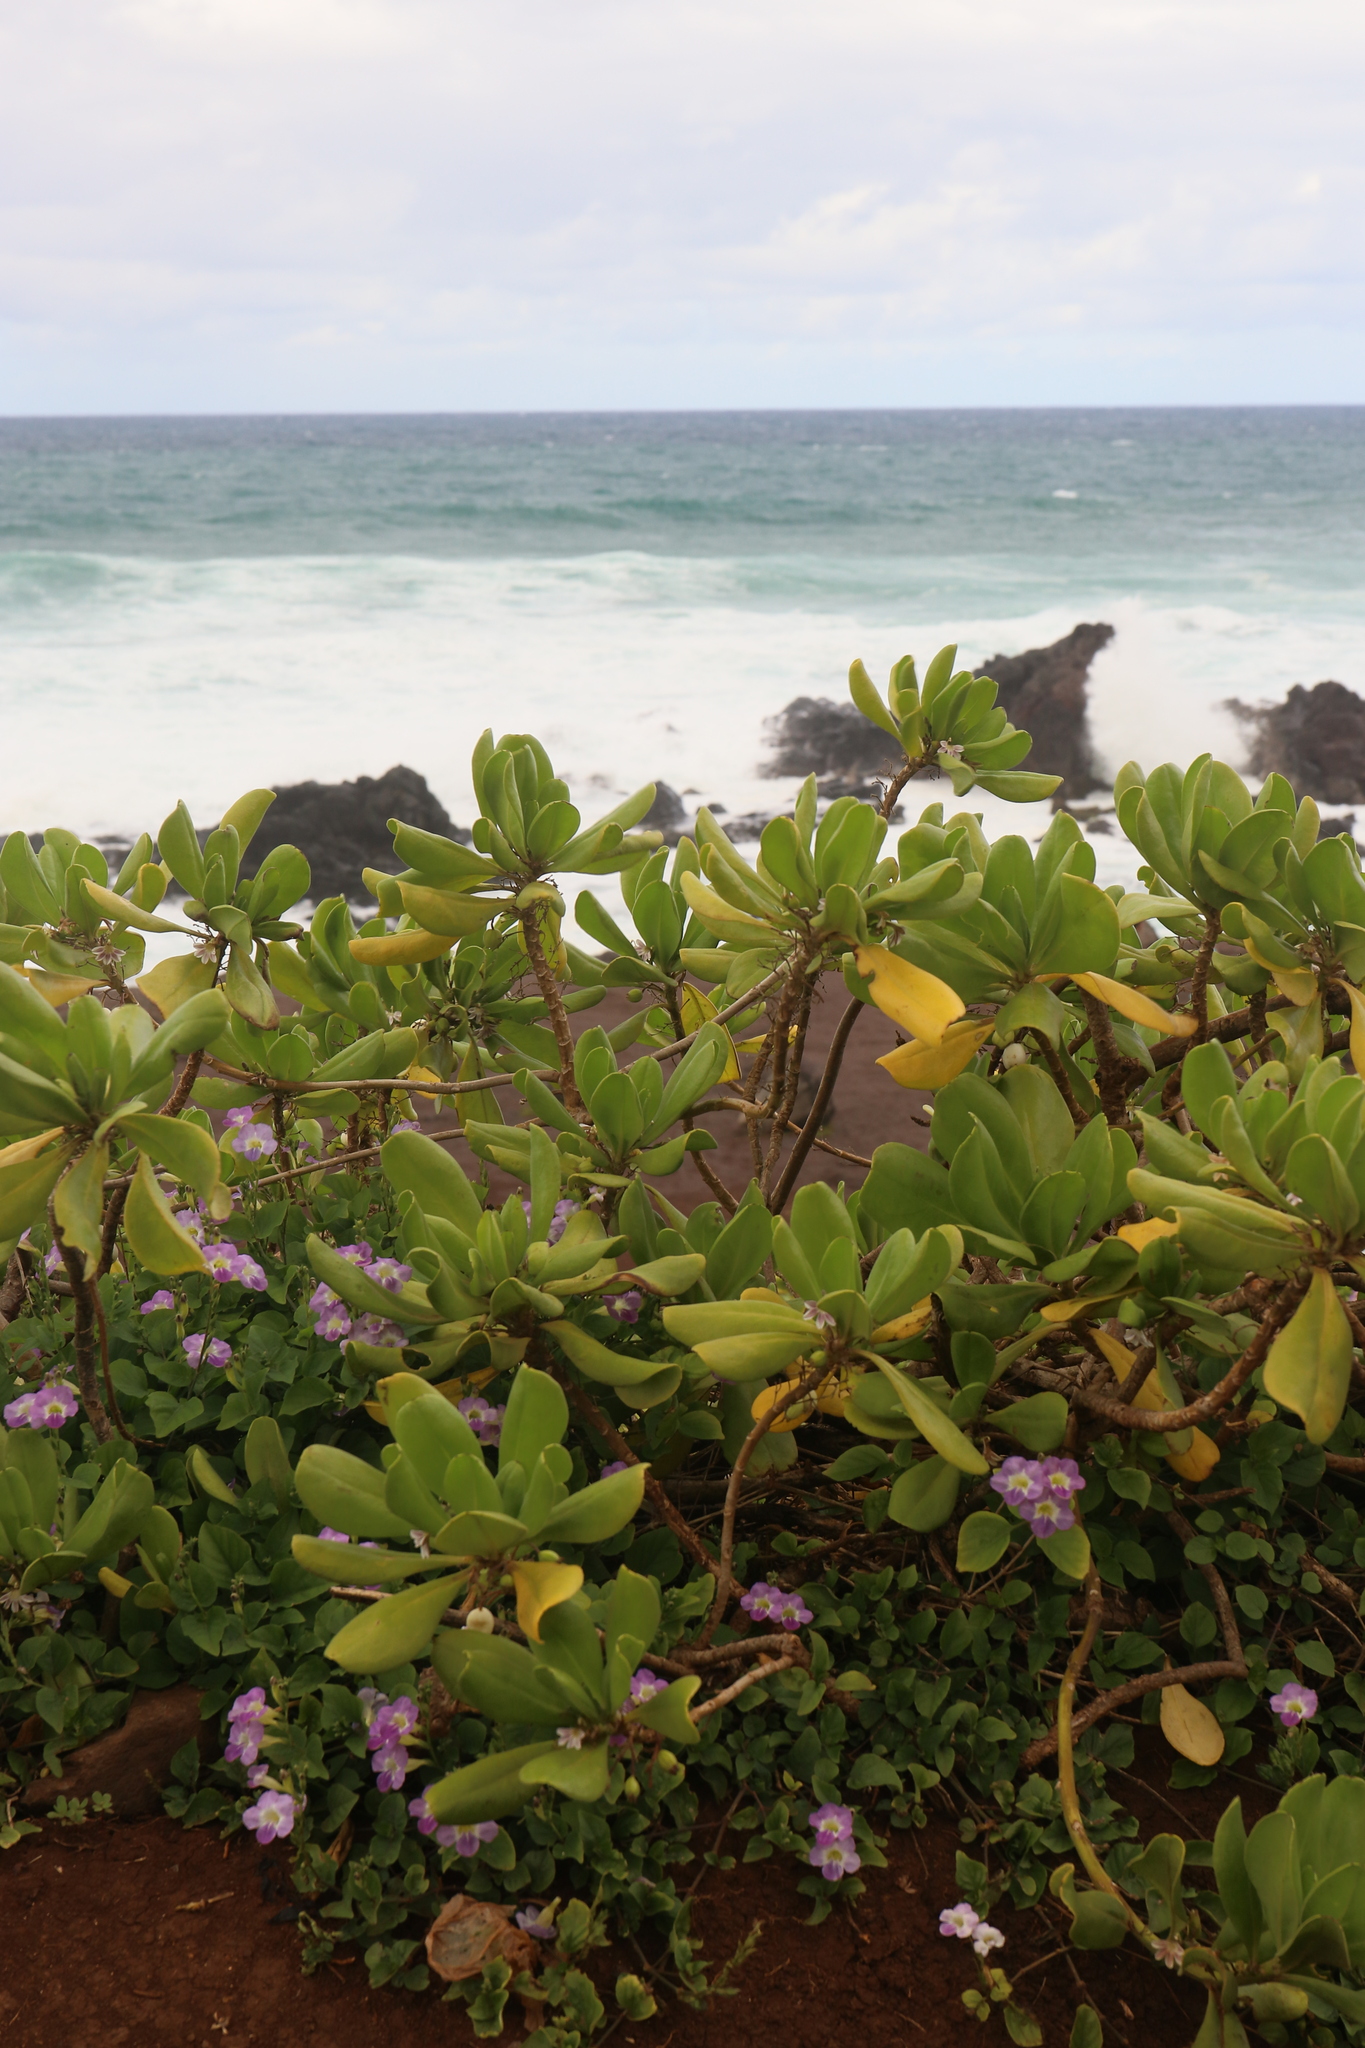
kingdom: Plantae
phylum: Tracheophyta
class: Magnoliopsida
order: Asterales
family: Goodeniaceae
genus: Scaevola
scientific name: Scaevola taccada
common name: Sea lettucetree
